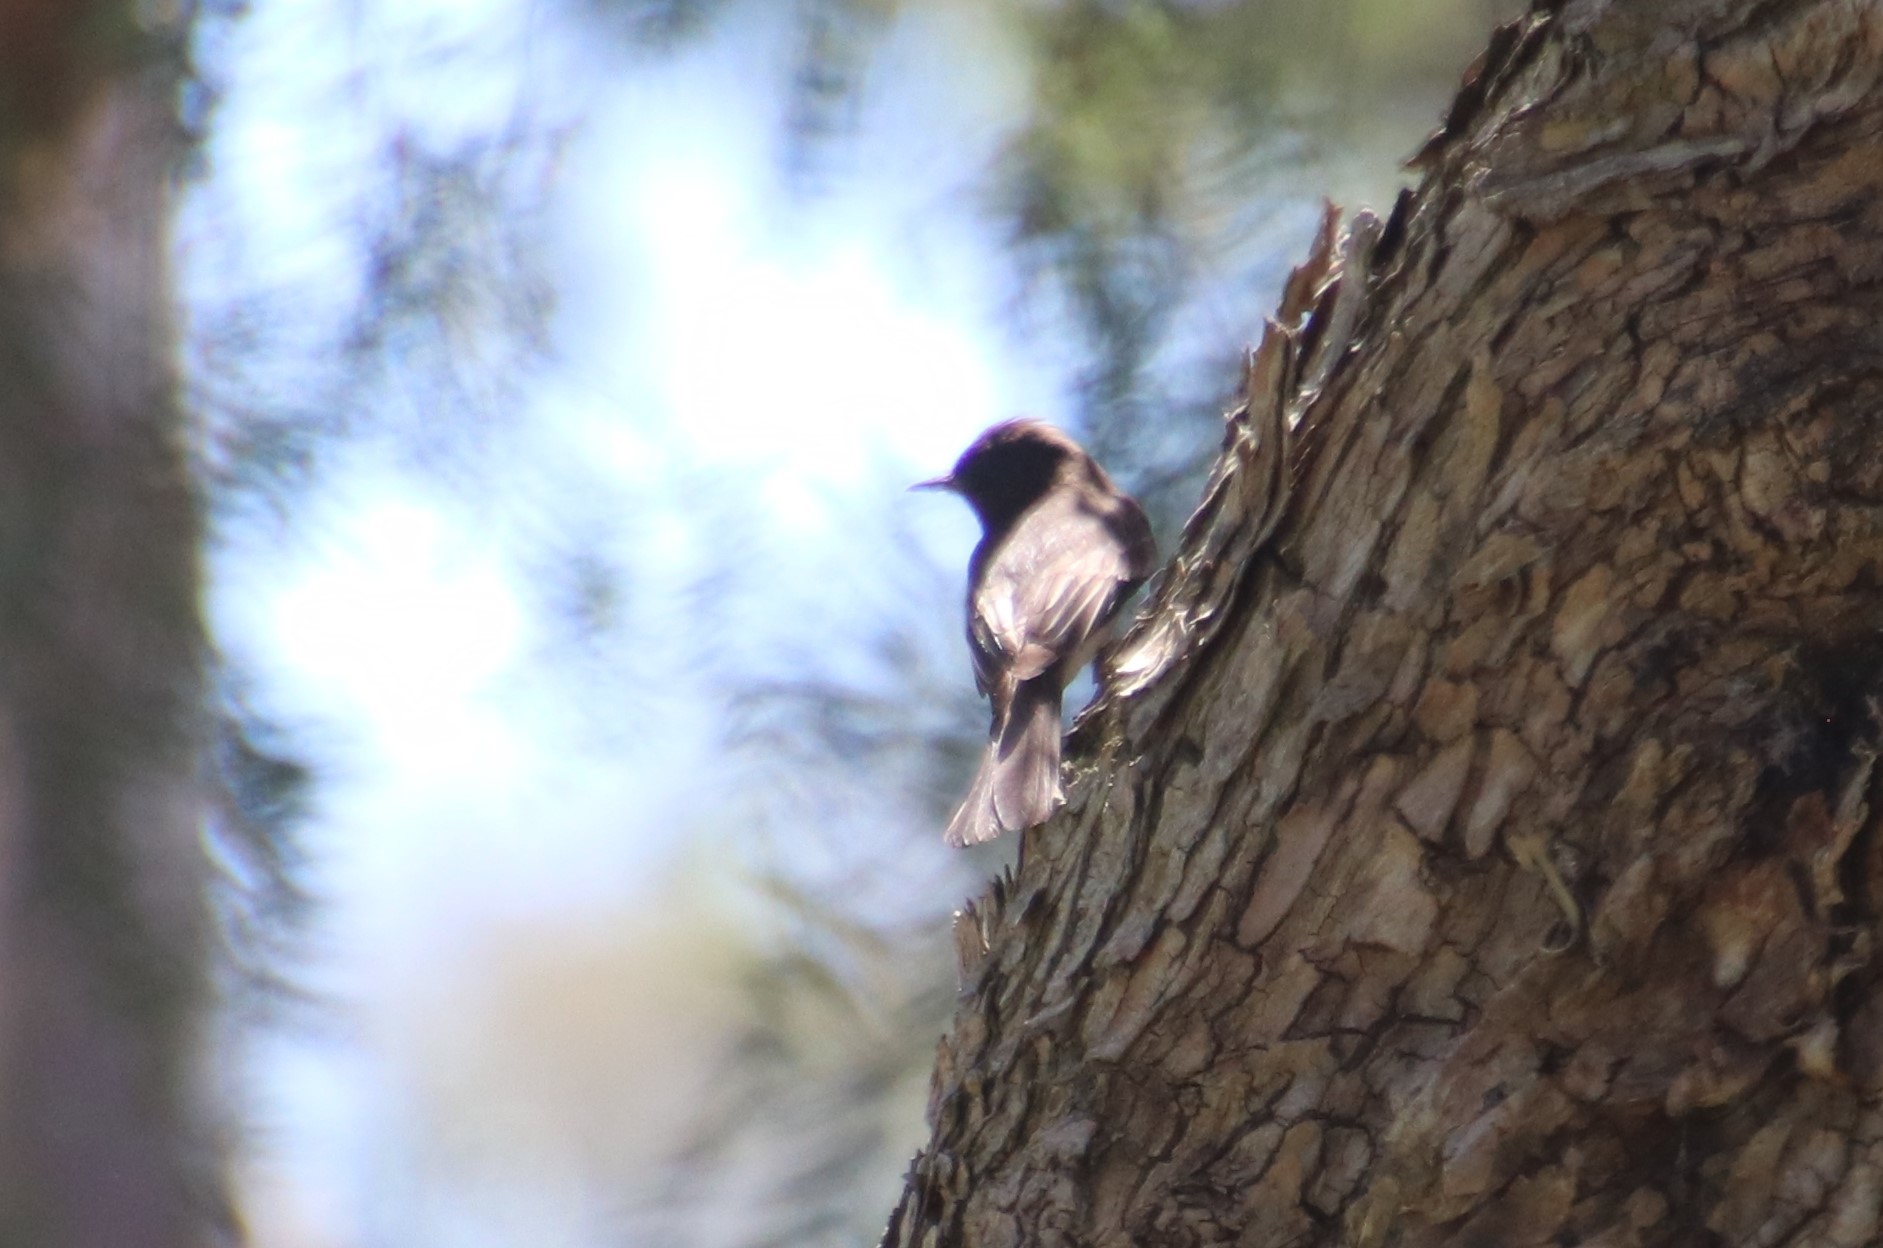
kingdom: Animalia
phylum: Chordata
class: Aves
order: Passeriformes
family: Tyrannidae
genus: Sayornis
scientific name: Sayornis nigricans
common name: Black phoebe
